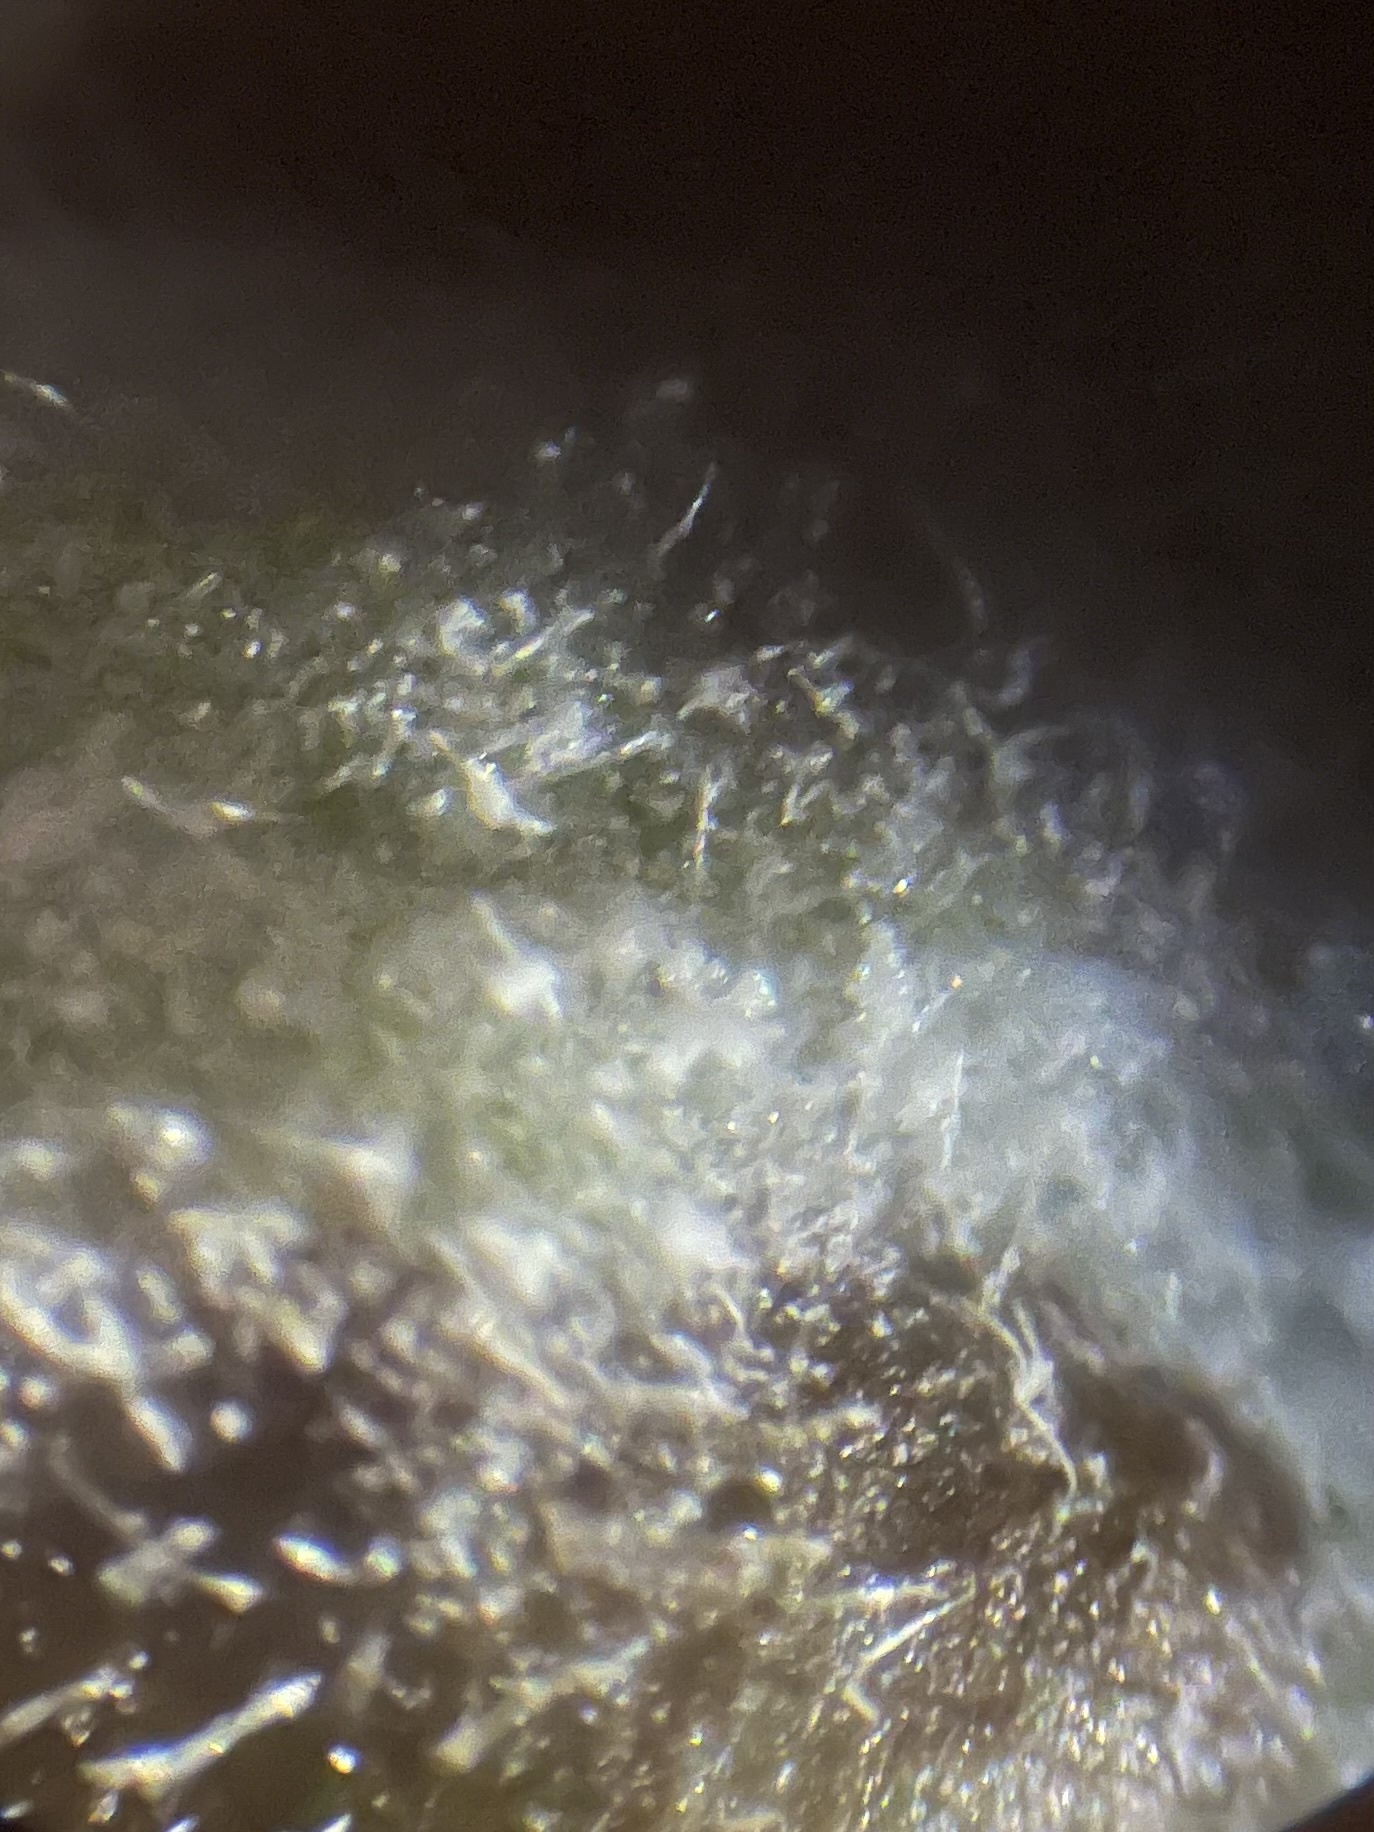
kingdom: Fungi
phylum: Ascomycota
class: Leotiomycetes
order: Helotiales
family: Erysiphaceae
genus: Podosphaera
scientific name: Podosphaera epilobii
